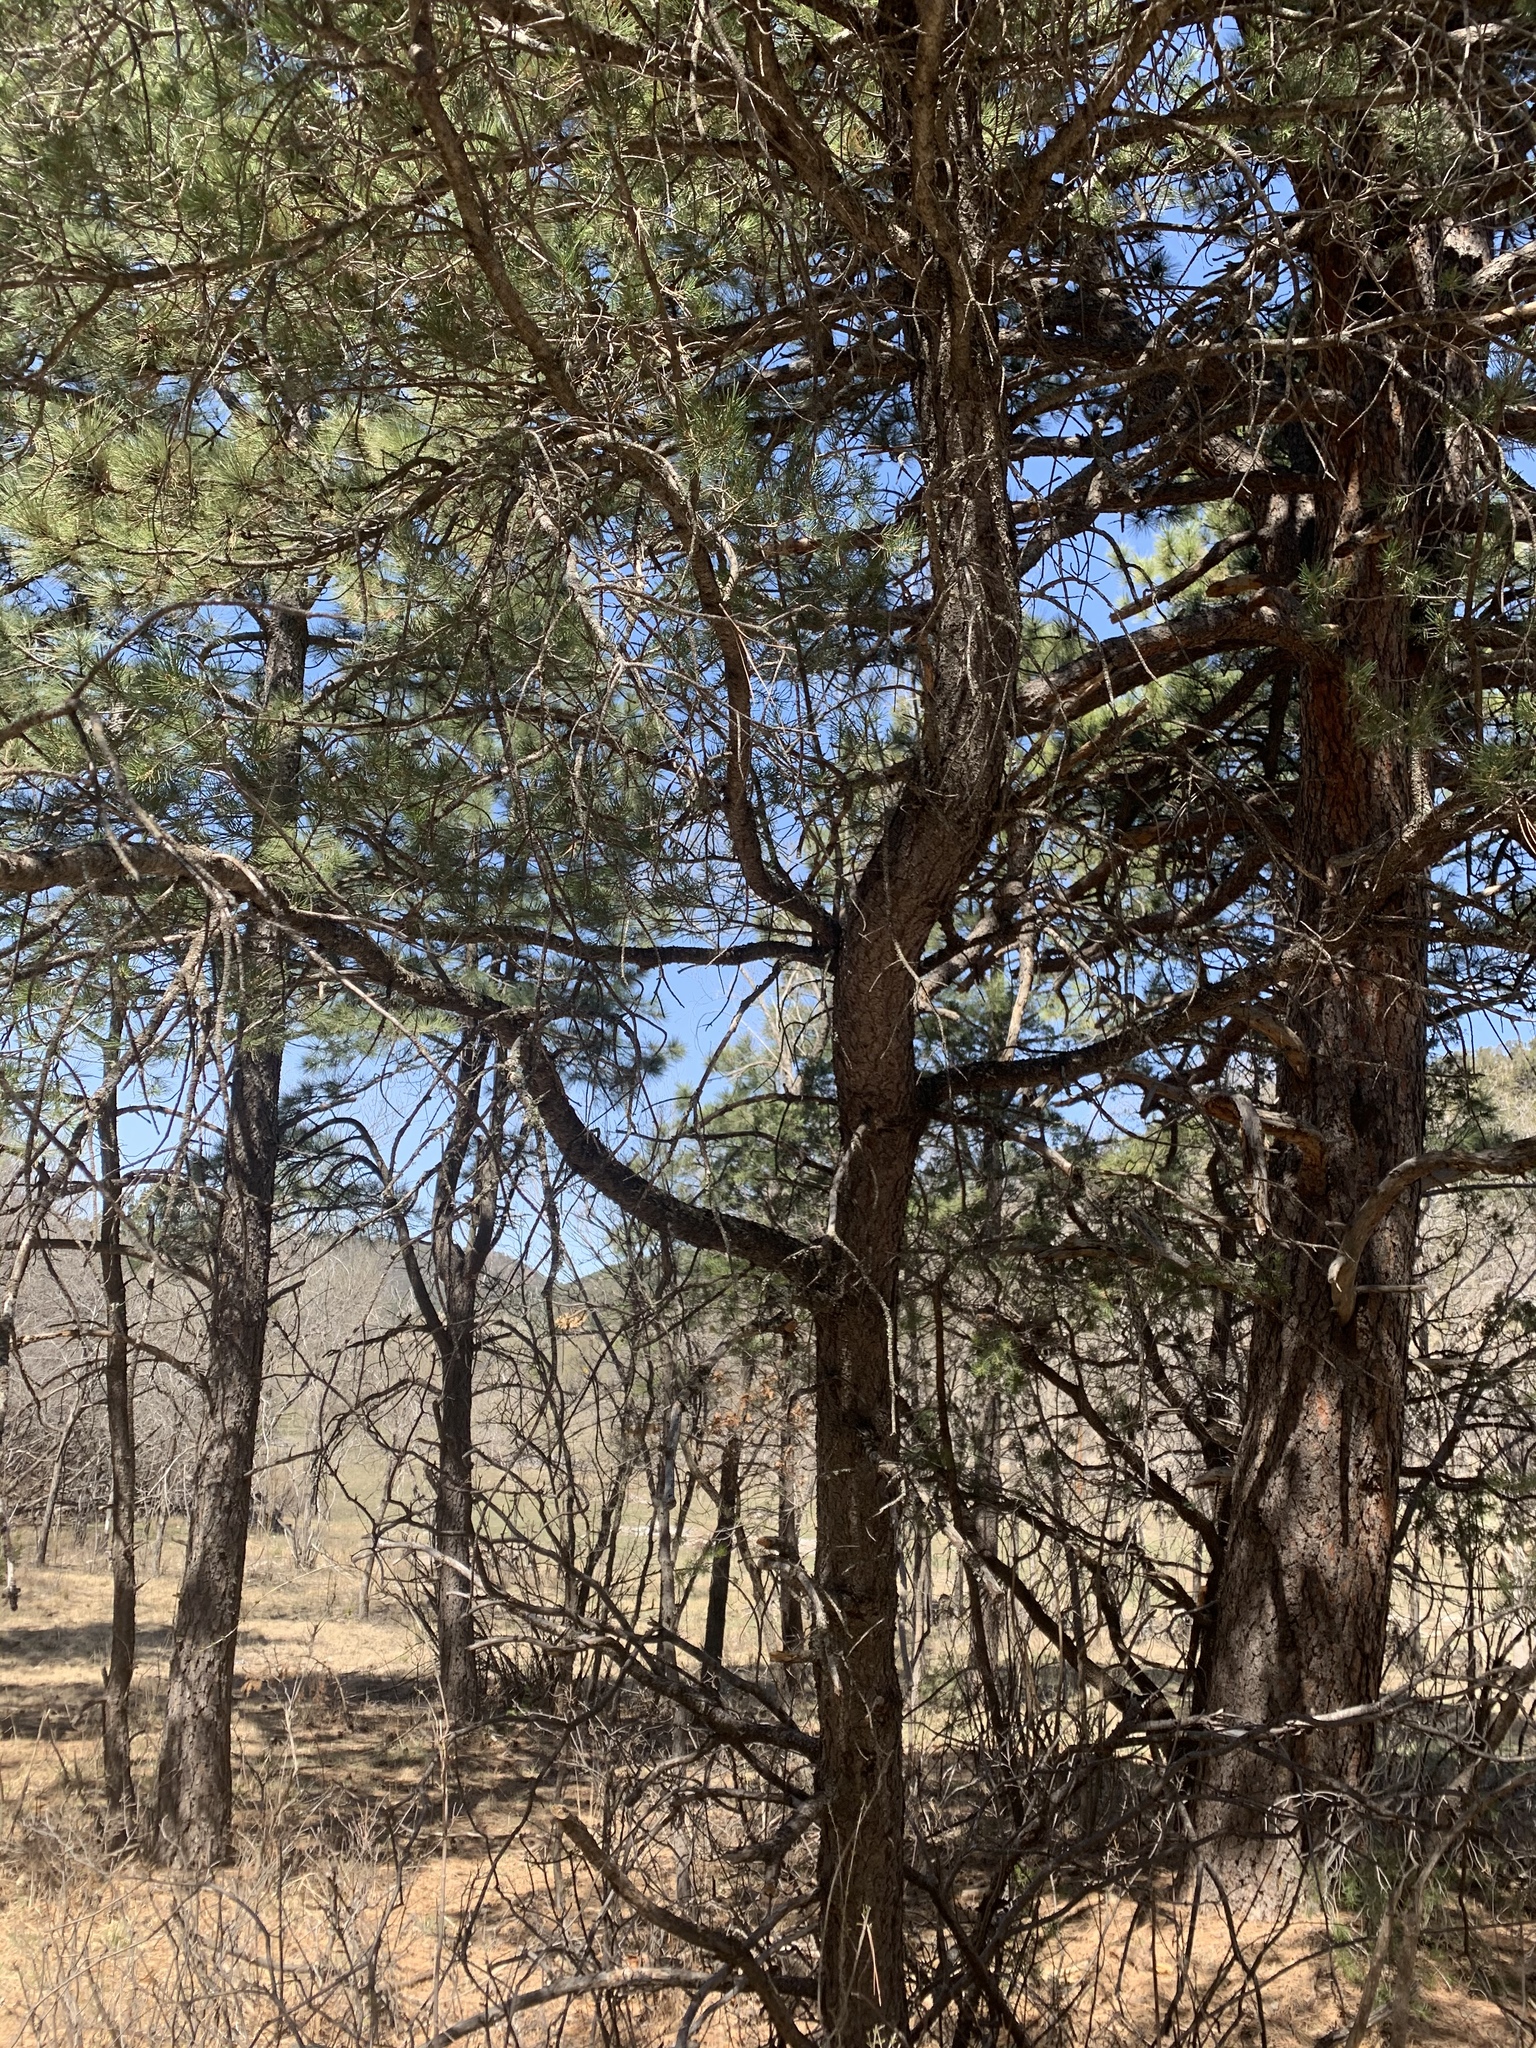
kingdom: Plantae
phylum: Tracheophyta
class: Pinopsida
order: Pinales
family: Pinaceae
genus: Pinus
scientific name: Pinus edulis
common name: Colorado pinyon
